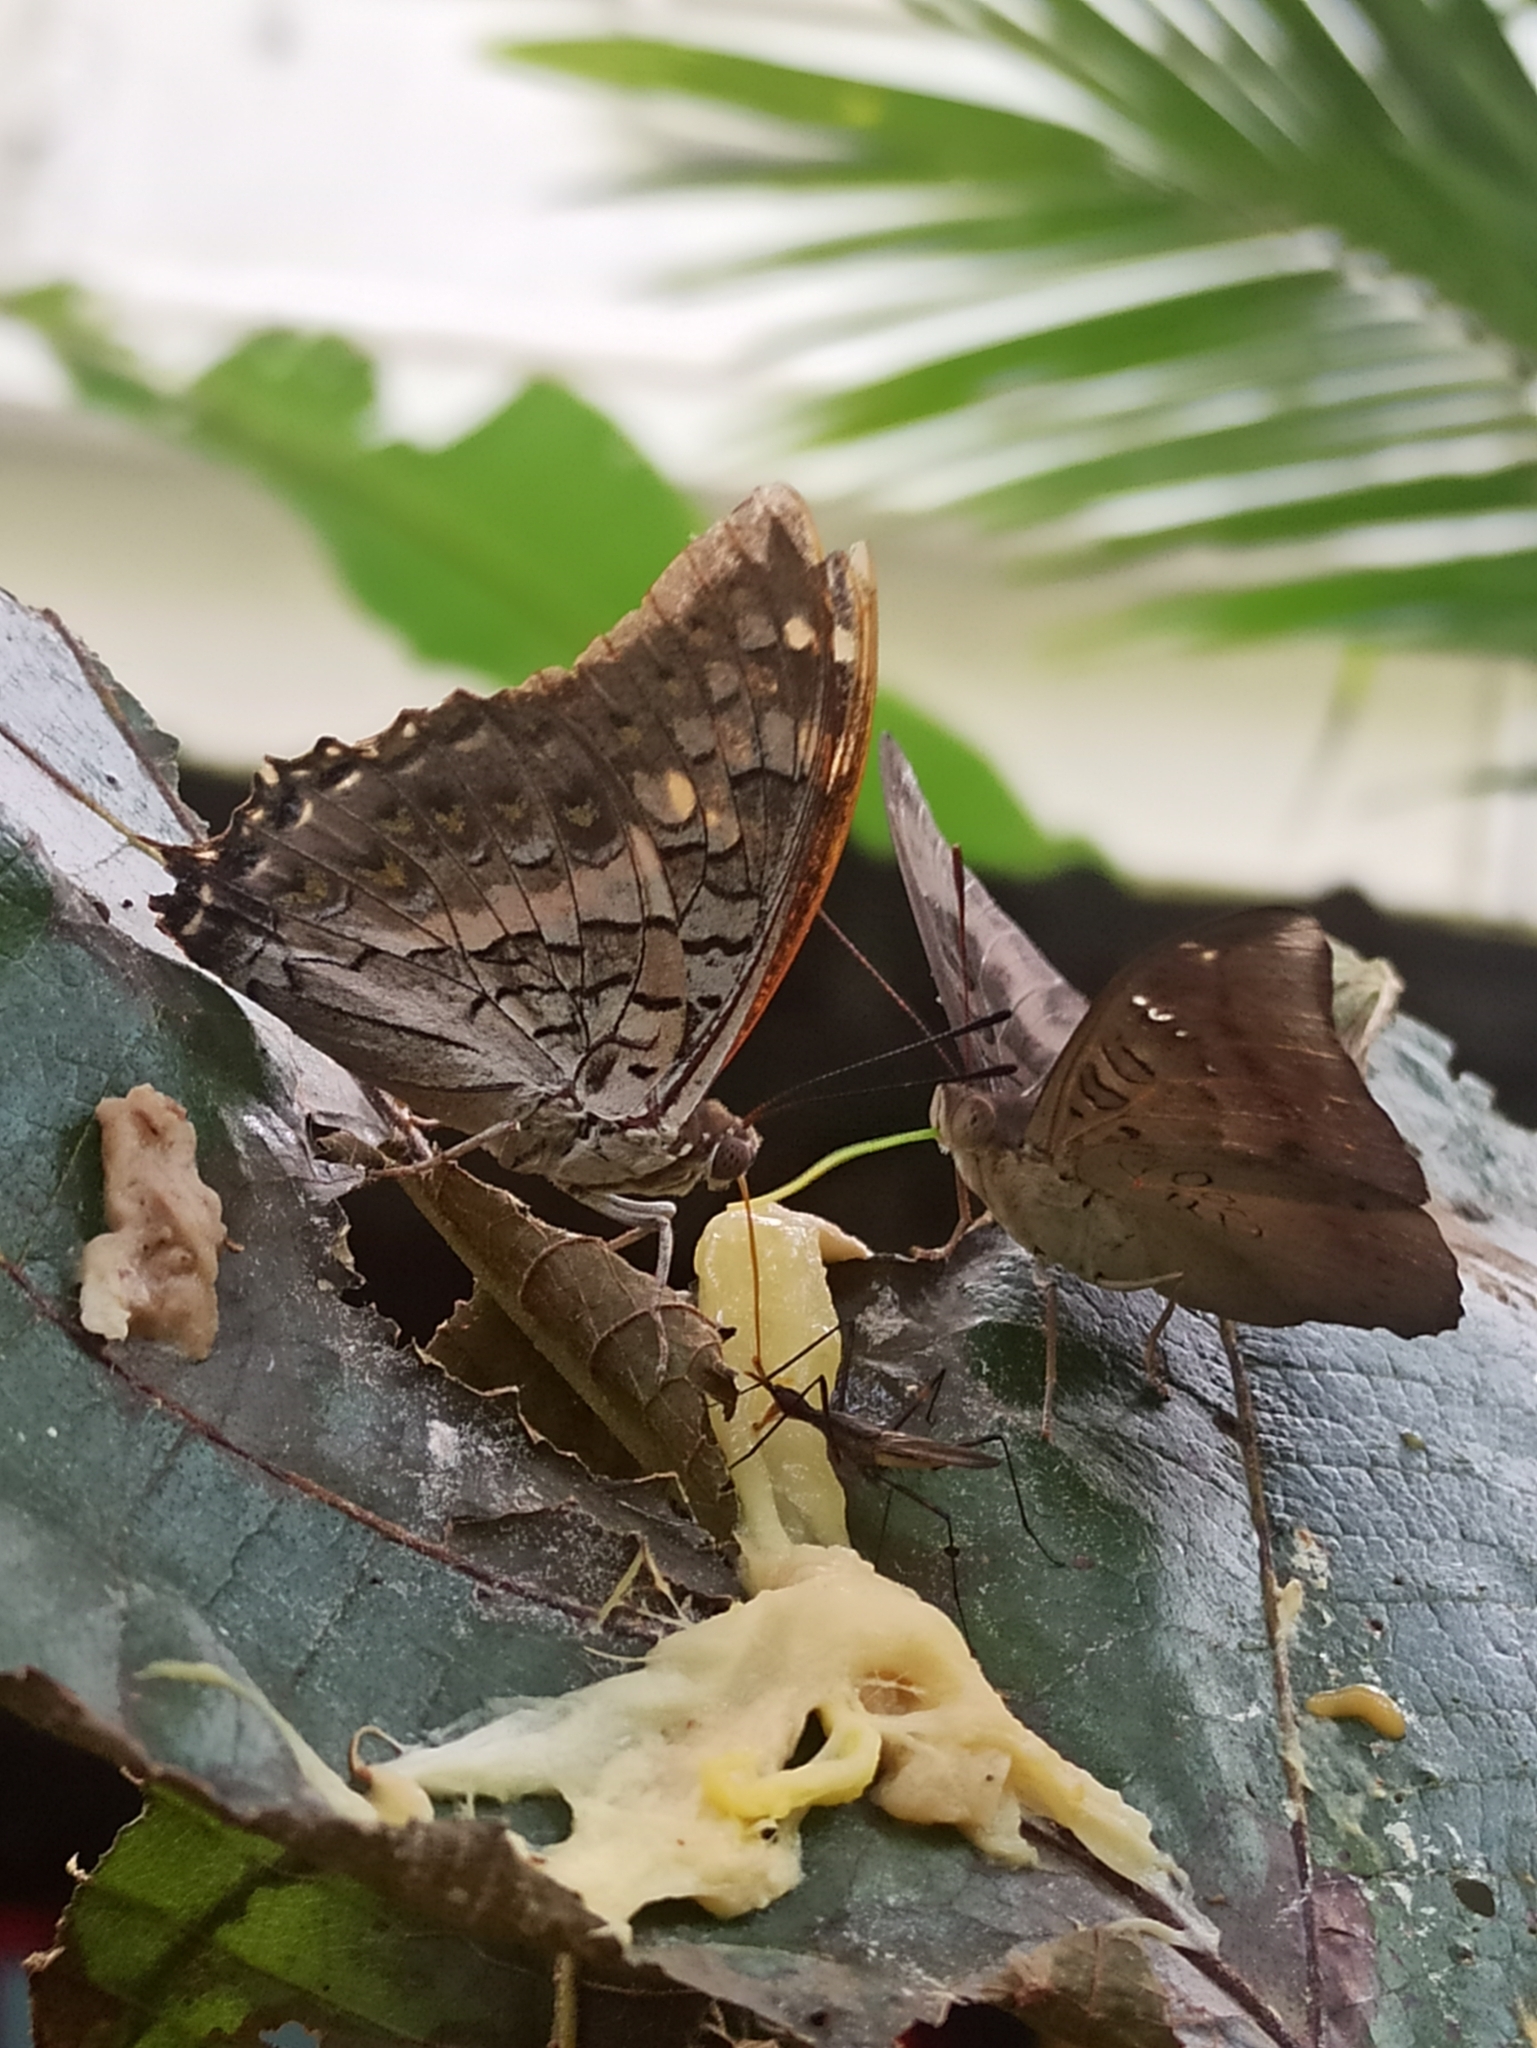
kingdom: Animalia
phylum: Arthropoda
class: Insecta
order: Lepidoptera
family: Nymphalidae
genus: Euthalia
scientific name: Euthalia aconthea
